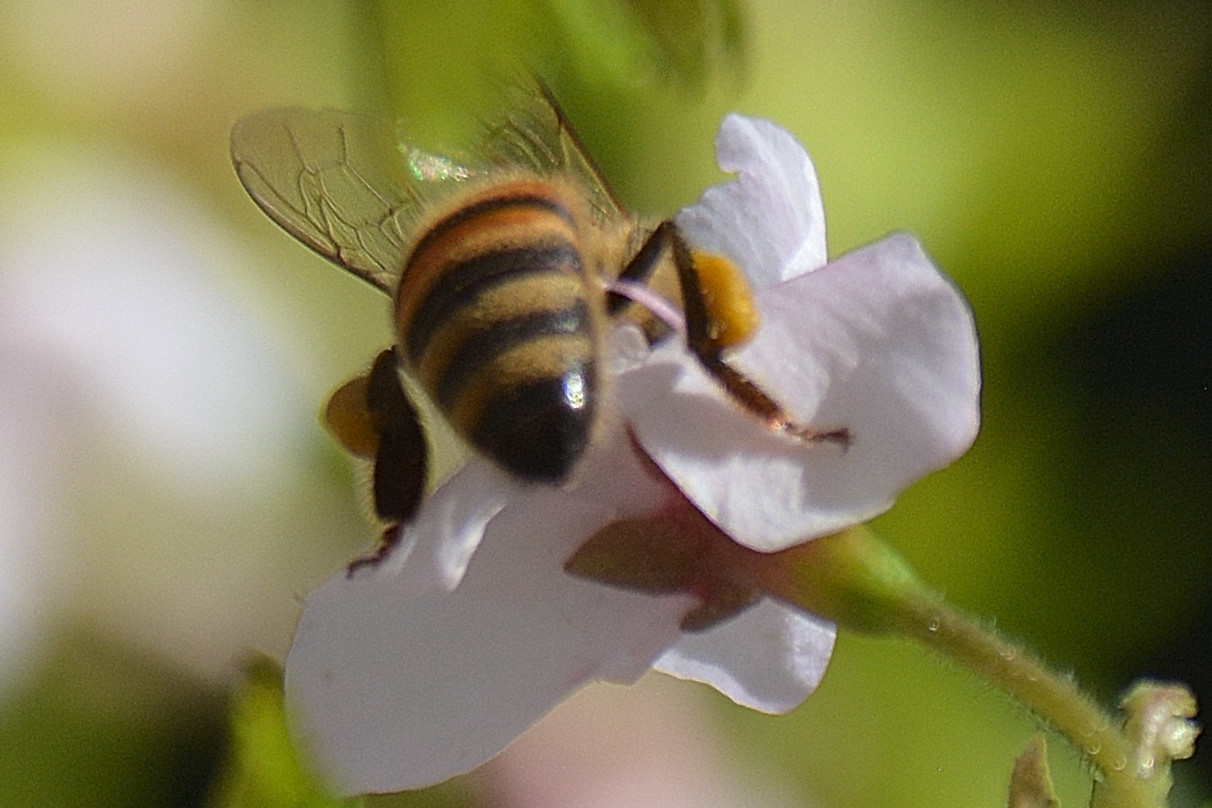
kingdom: Animalia
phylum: Arthropoda
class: Insecta
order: Hymenoptera
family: Apidae
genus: Apis
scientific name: Apis mellifera
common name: Honey bee
